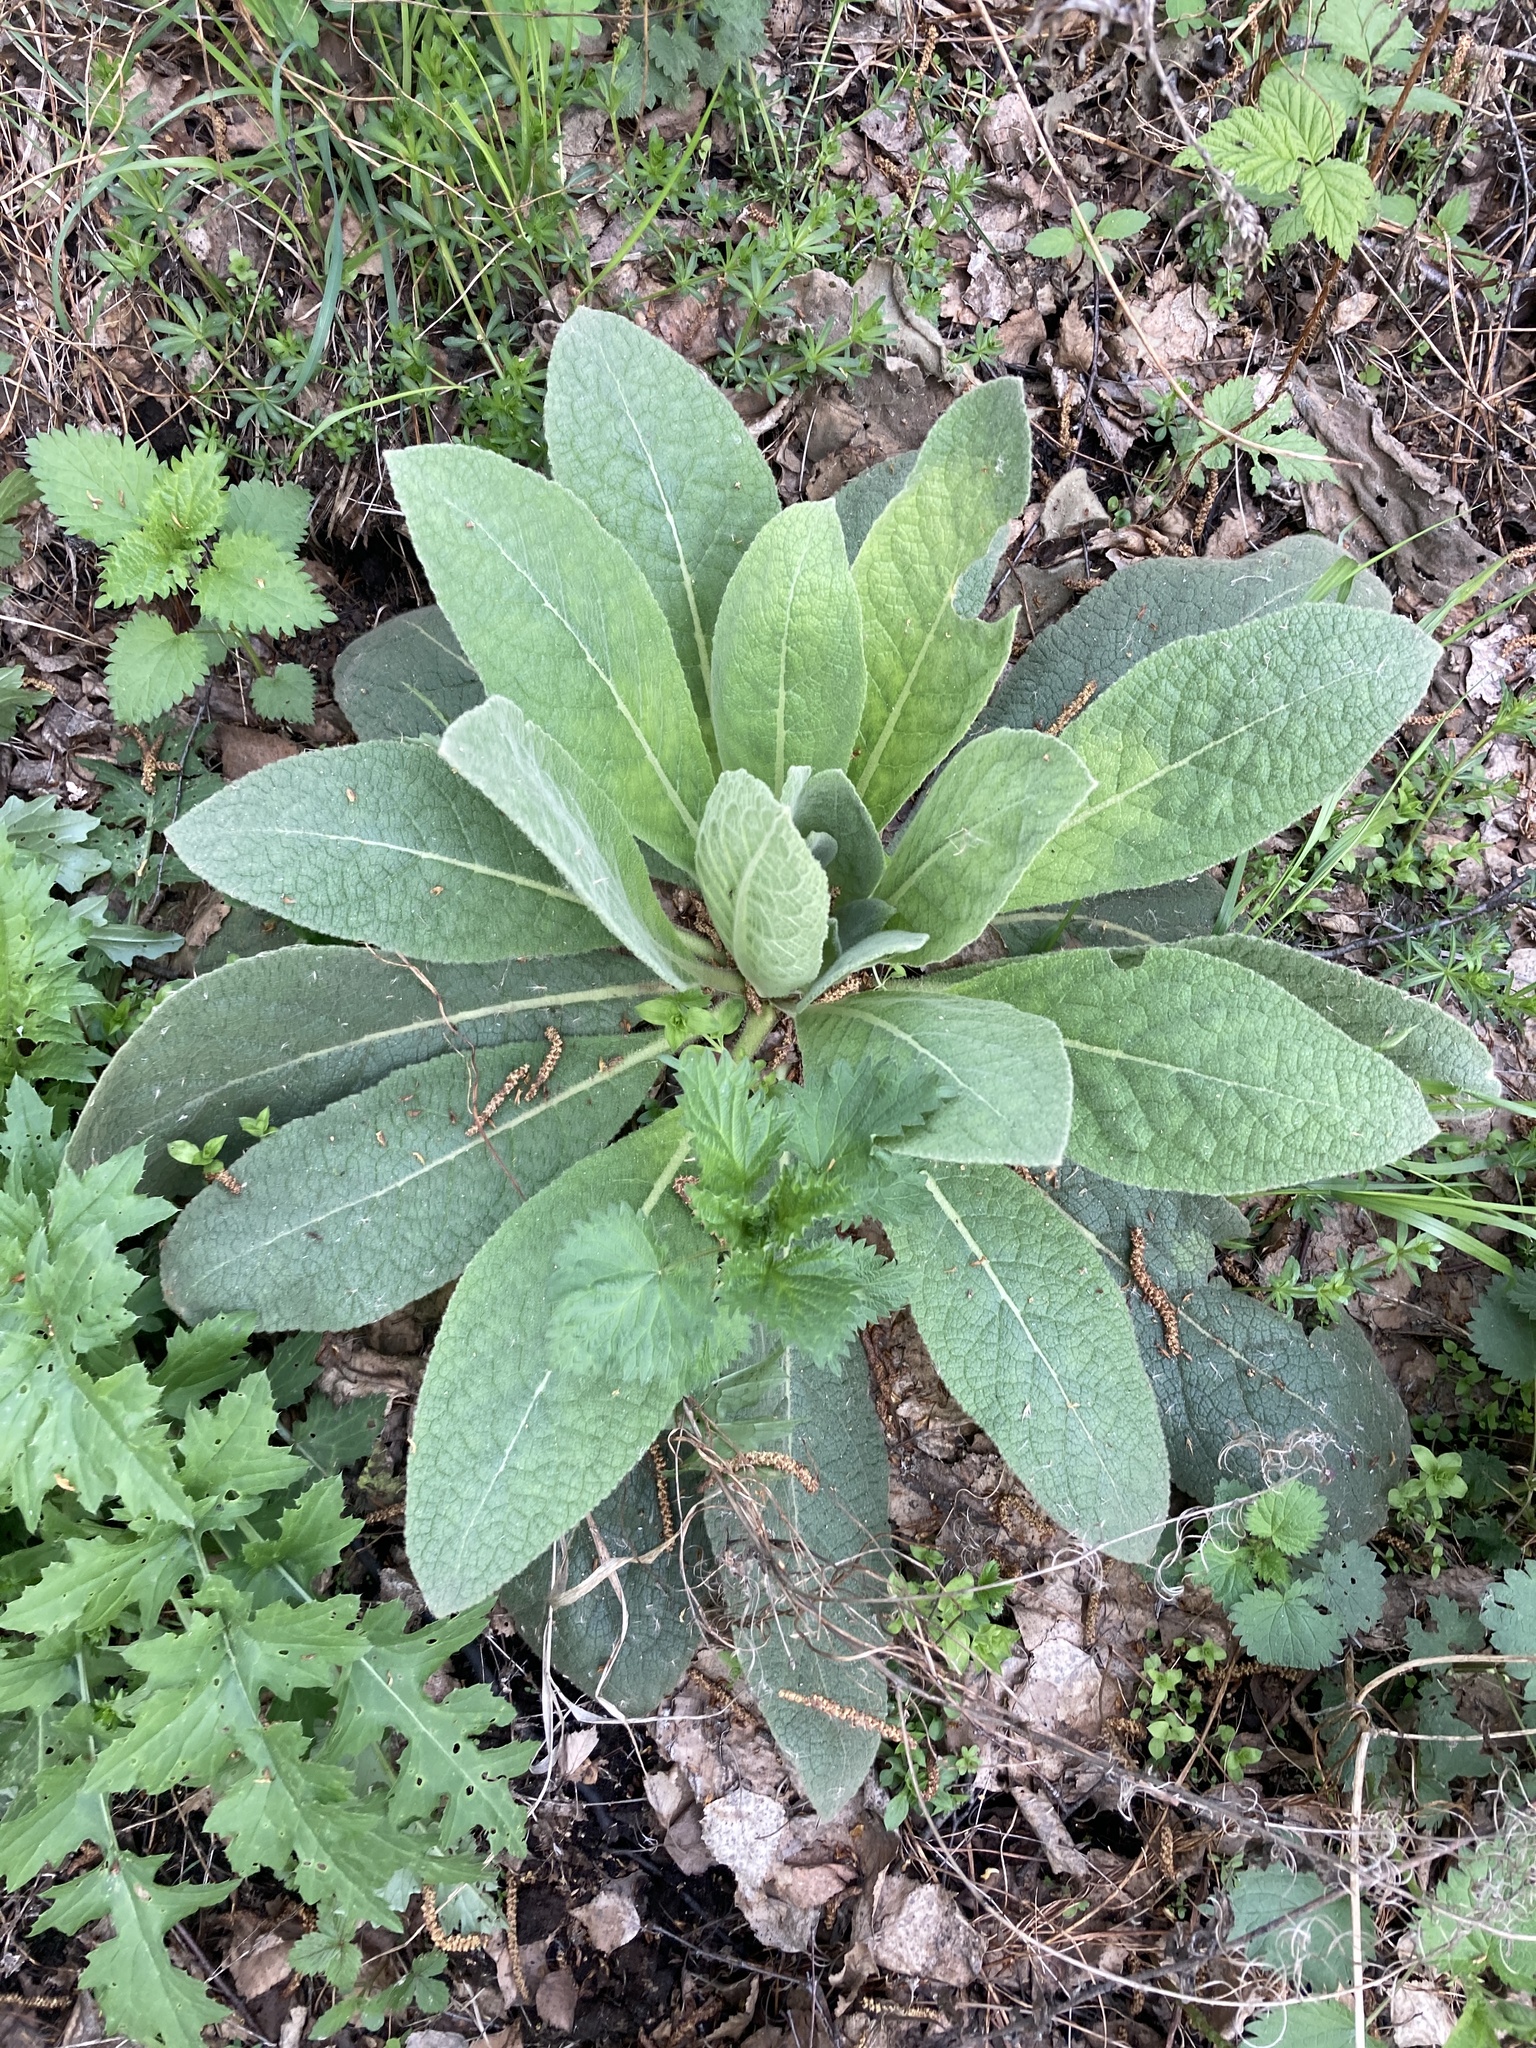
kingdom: Plantae
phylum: Tracheophyta
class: Magnoliopsida
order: Lamiales
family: Scrophulariaceae
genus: Verbascum
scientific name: Verbascum thapsus
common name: Common mullein
